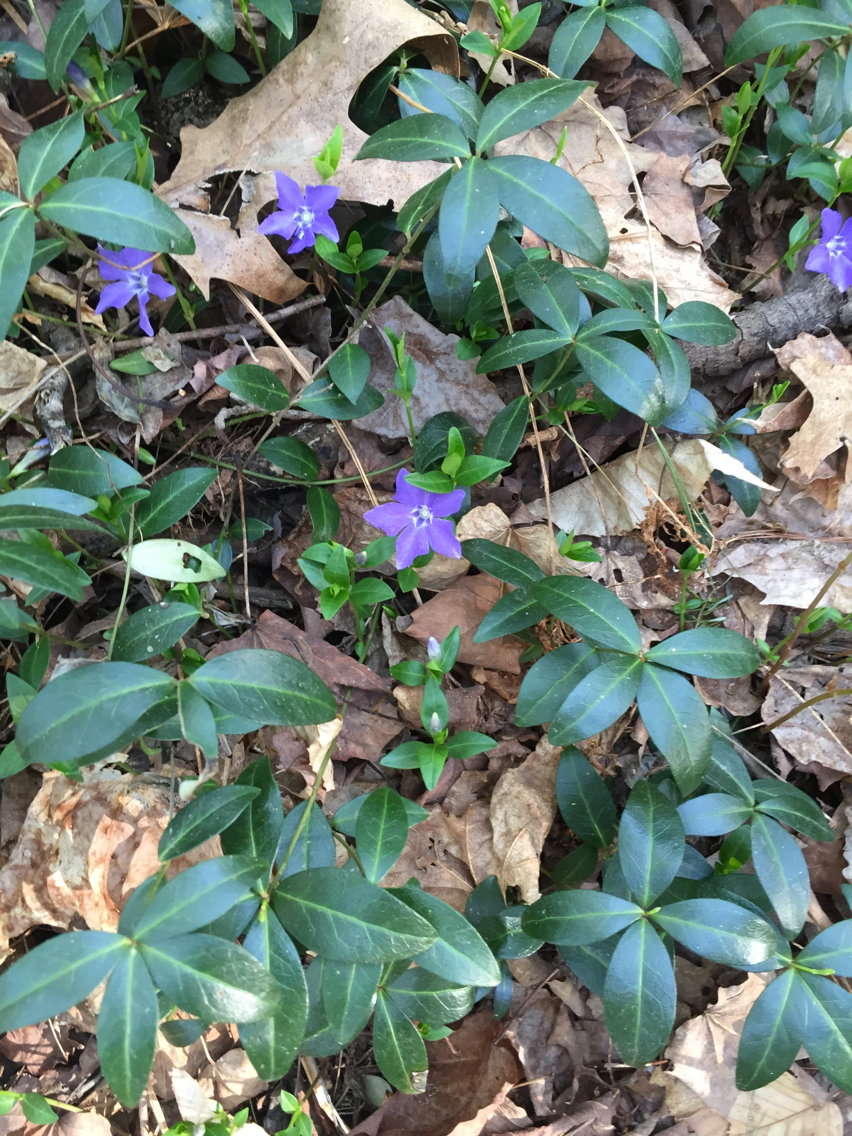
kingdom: Plantae
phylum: Tracheophyta
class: Magnoliopsida
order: Gentianales
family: Apocynaceae
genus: Vinca
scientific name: Vinca minor
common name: Lesser periwinkle
